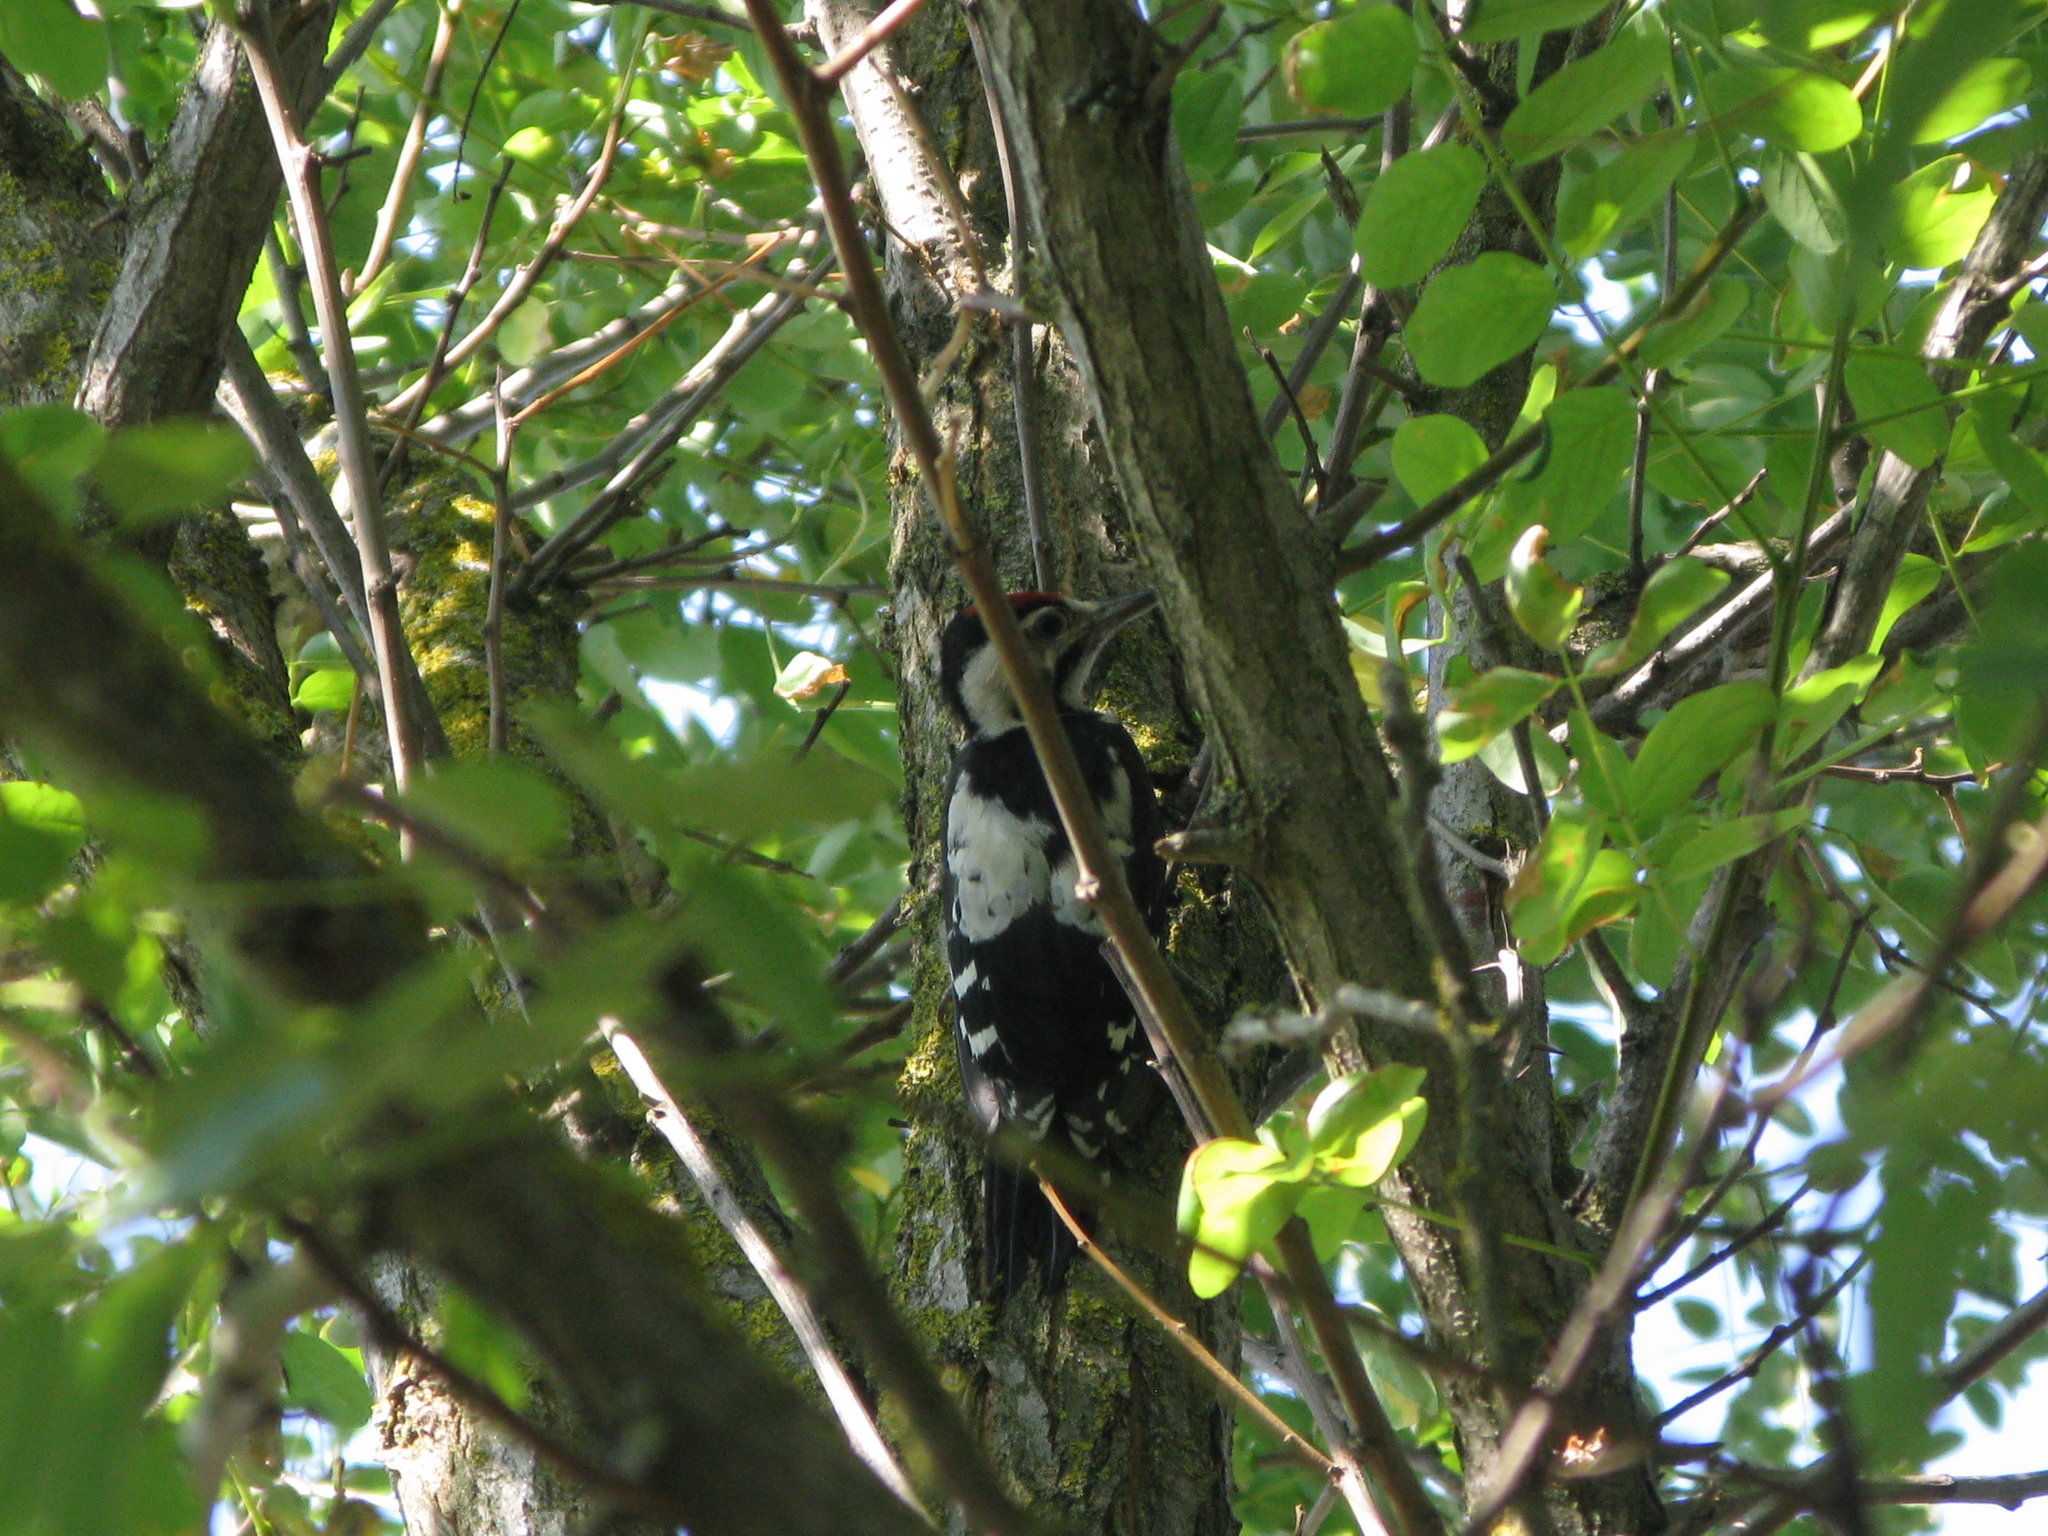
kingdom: Animalia
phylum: Chordata
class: Aves
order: Piciformes
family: Picidae
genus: Dendrocopos
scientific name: Dendrocopos syriacus
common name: Syrian woodpecker
